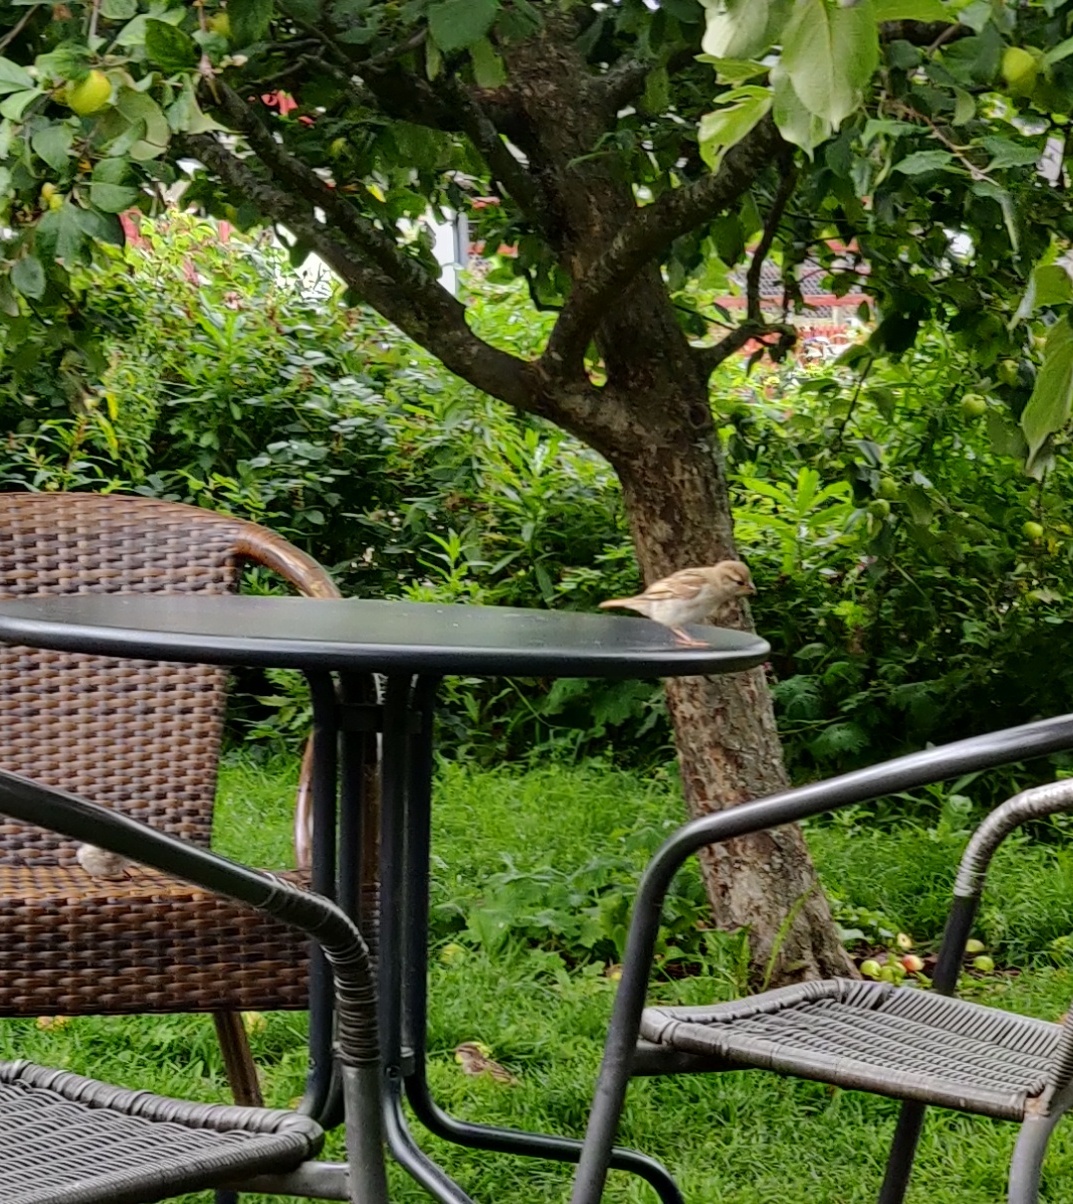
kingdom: Animalia
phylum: Chordata
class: Aves
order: Passeriformes
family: Passeridae
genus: Passer
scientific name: Passer domesticus
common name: House sparrow
